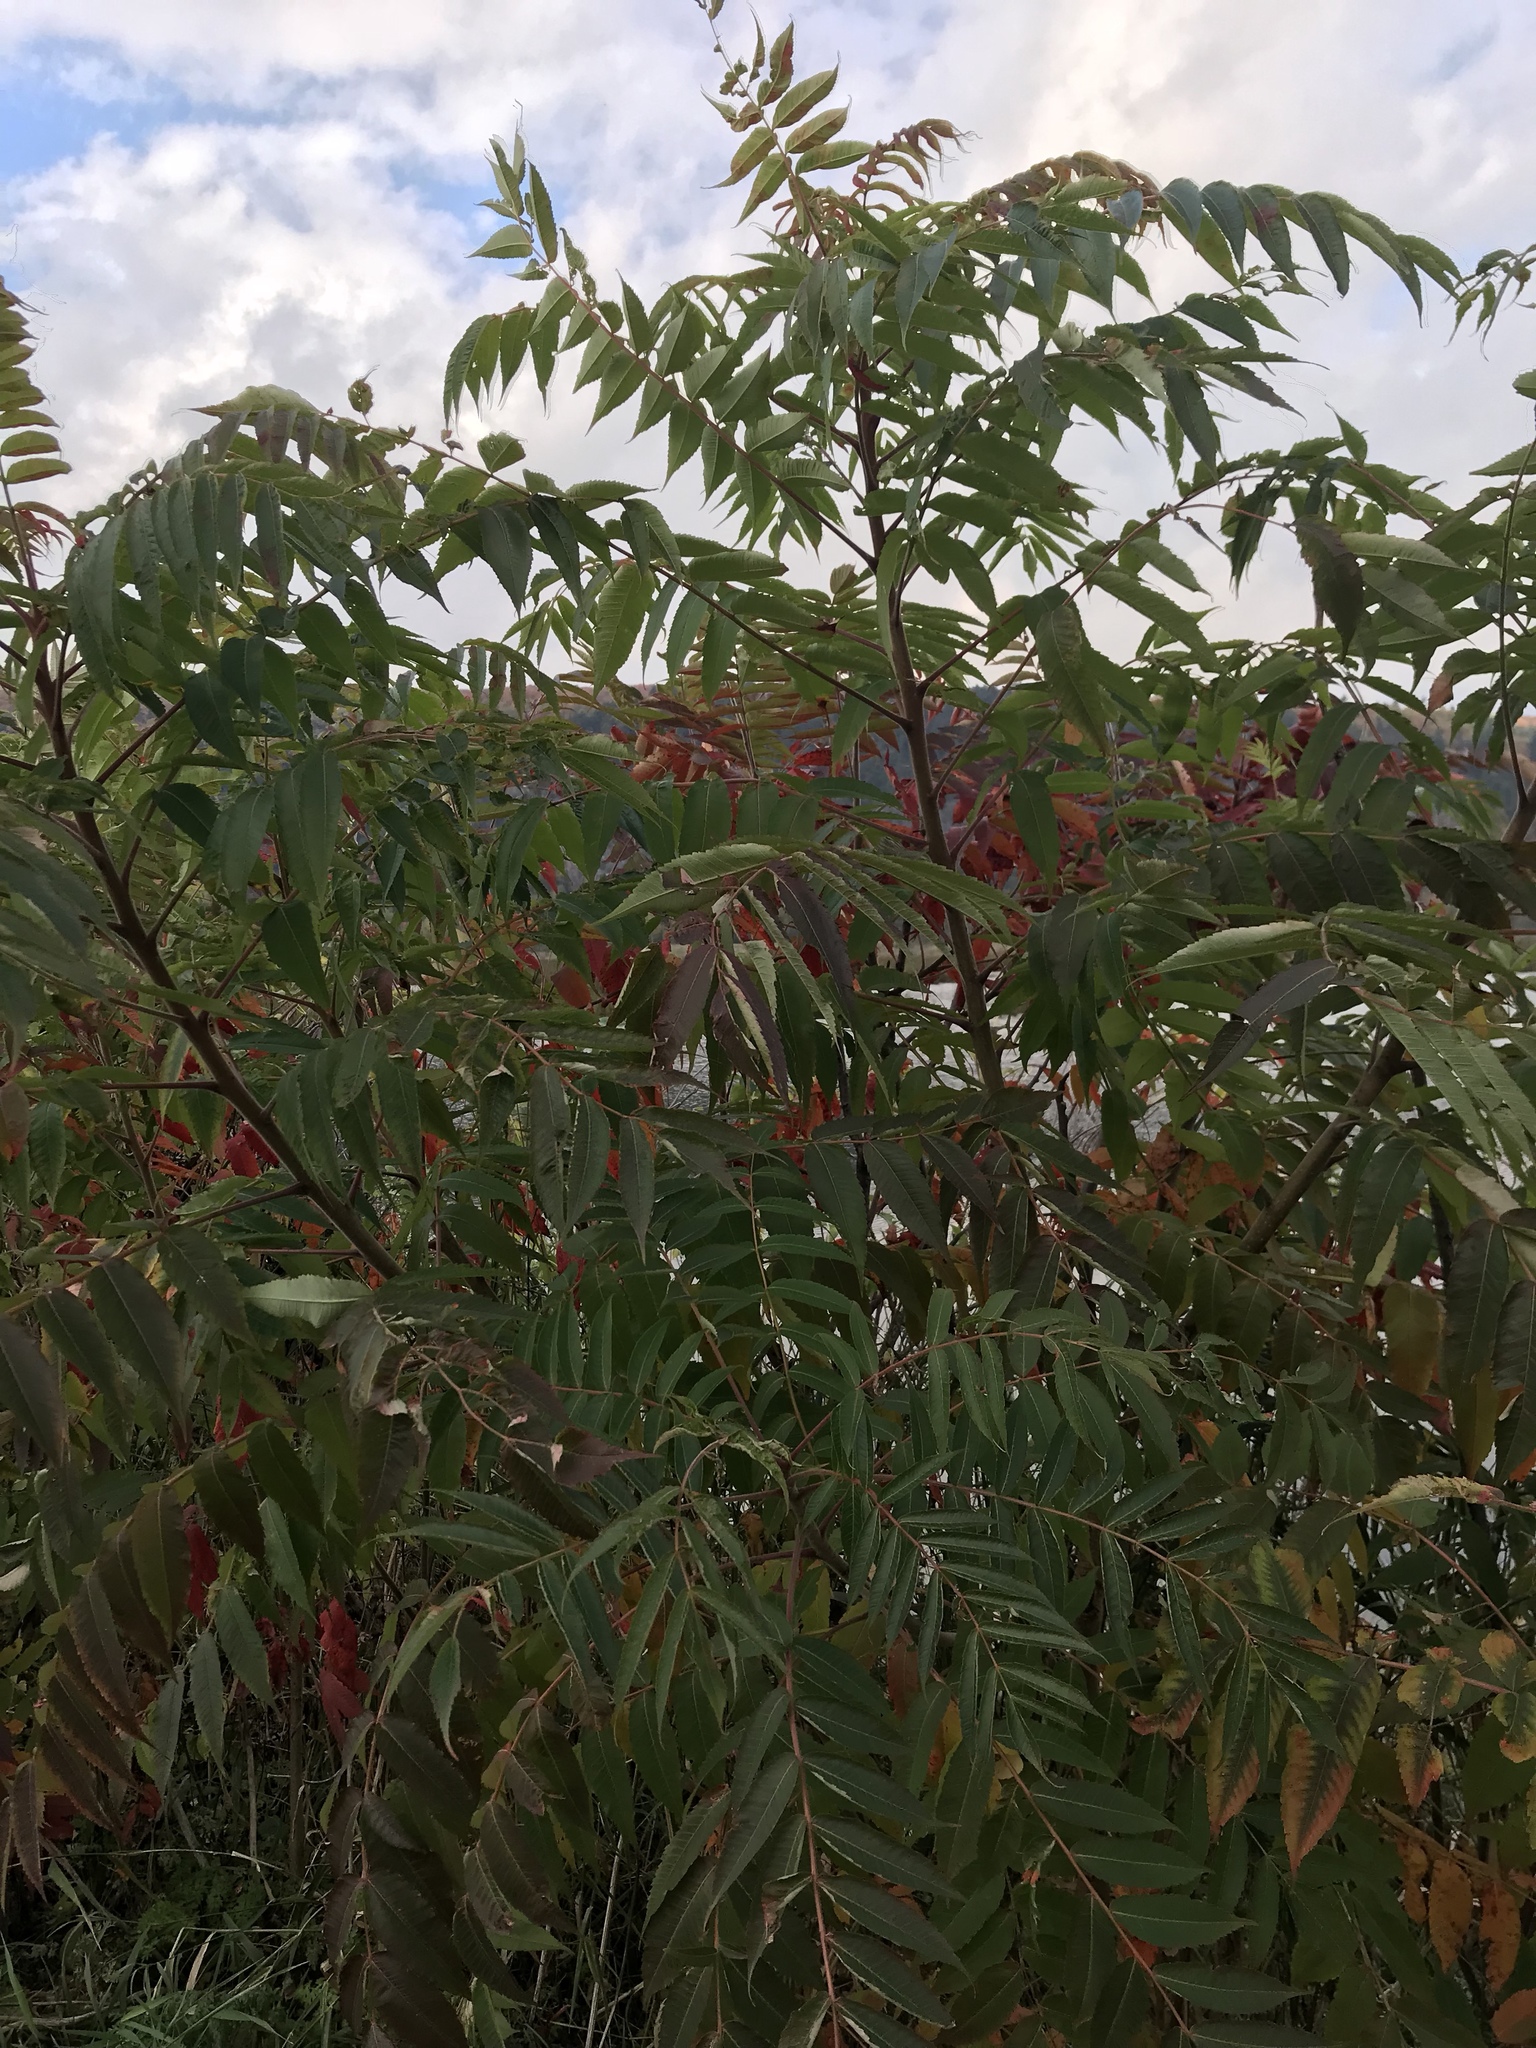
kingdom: Plantae
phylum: Tracheophyta
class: Magnoliopsida
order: Sapindales
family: Anacardiaceae
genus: Rhus
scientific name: Rhus typhina
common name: Staghorn sumac
